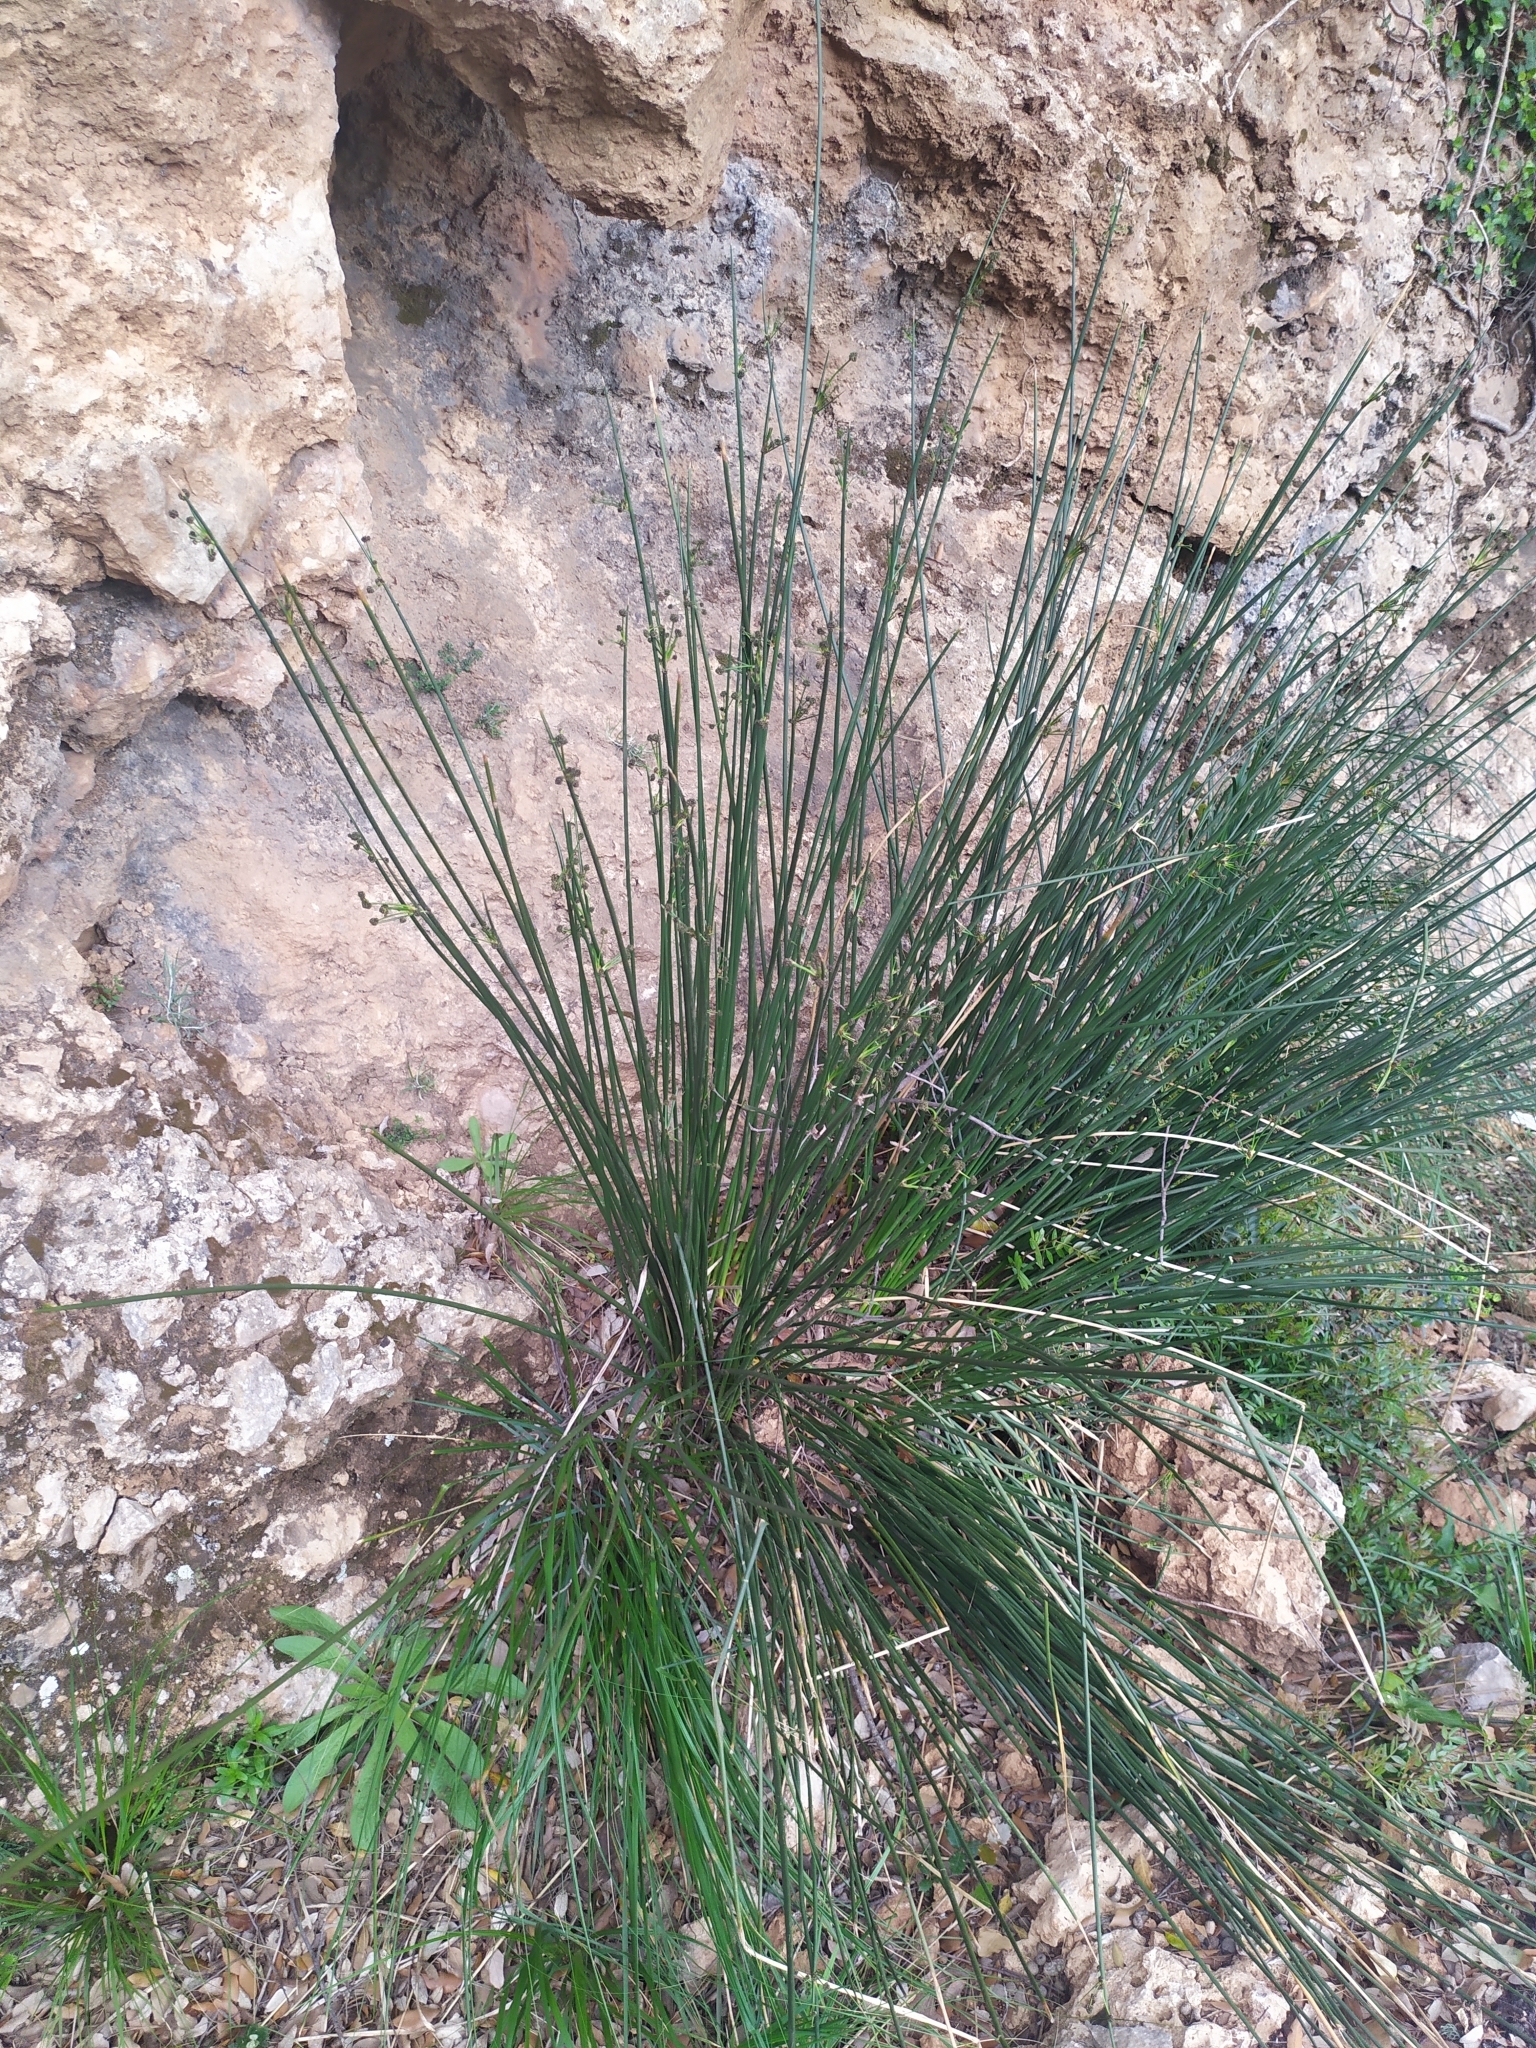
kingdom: Plantae
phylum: Tracheophyta
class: Liliopsida
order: Poales
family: Cyperaceae
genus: Scirpoides
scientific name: Scirpoides holoschoenus
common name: Round-headed club-rush
